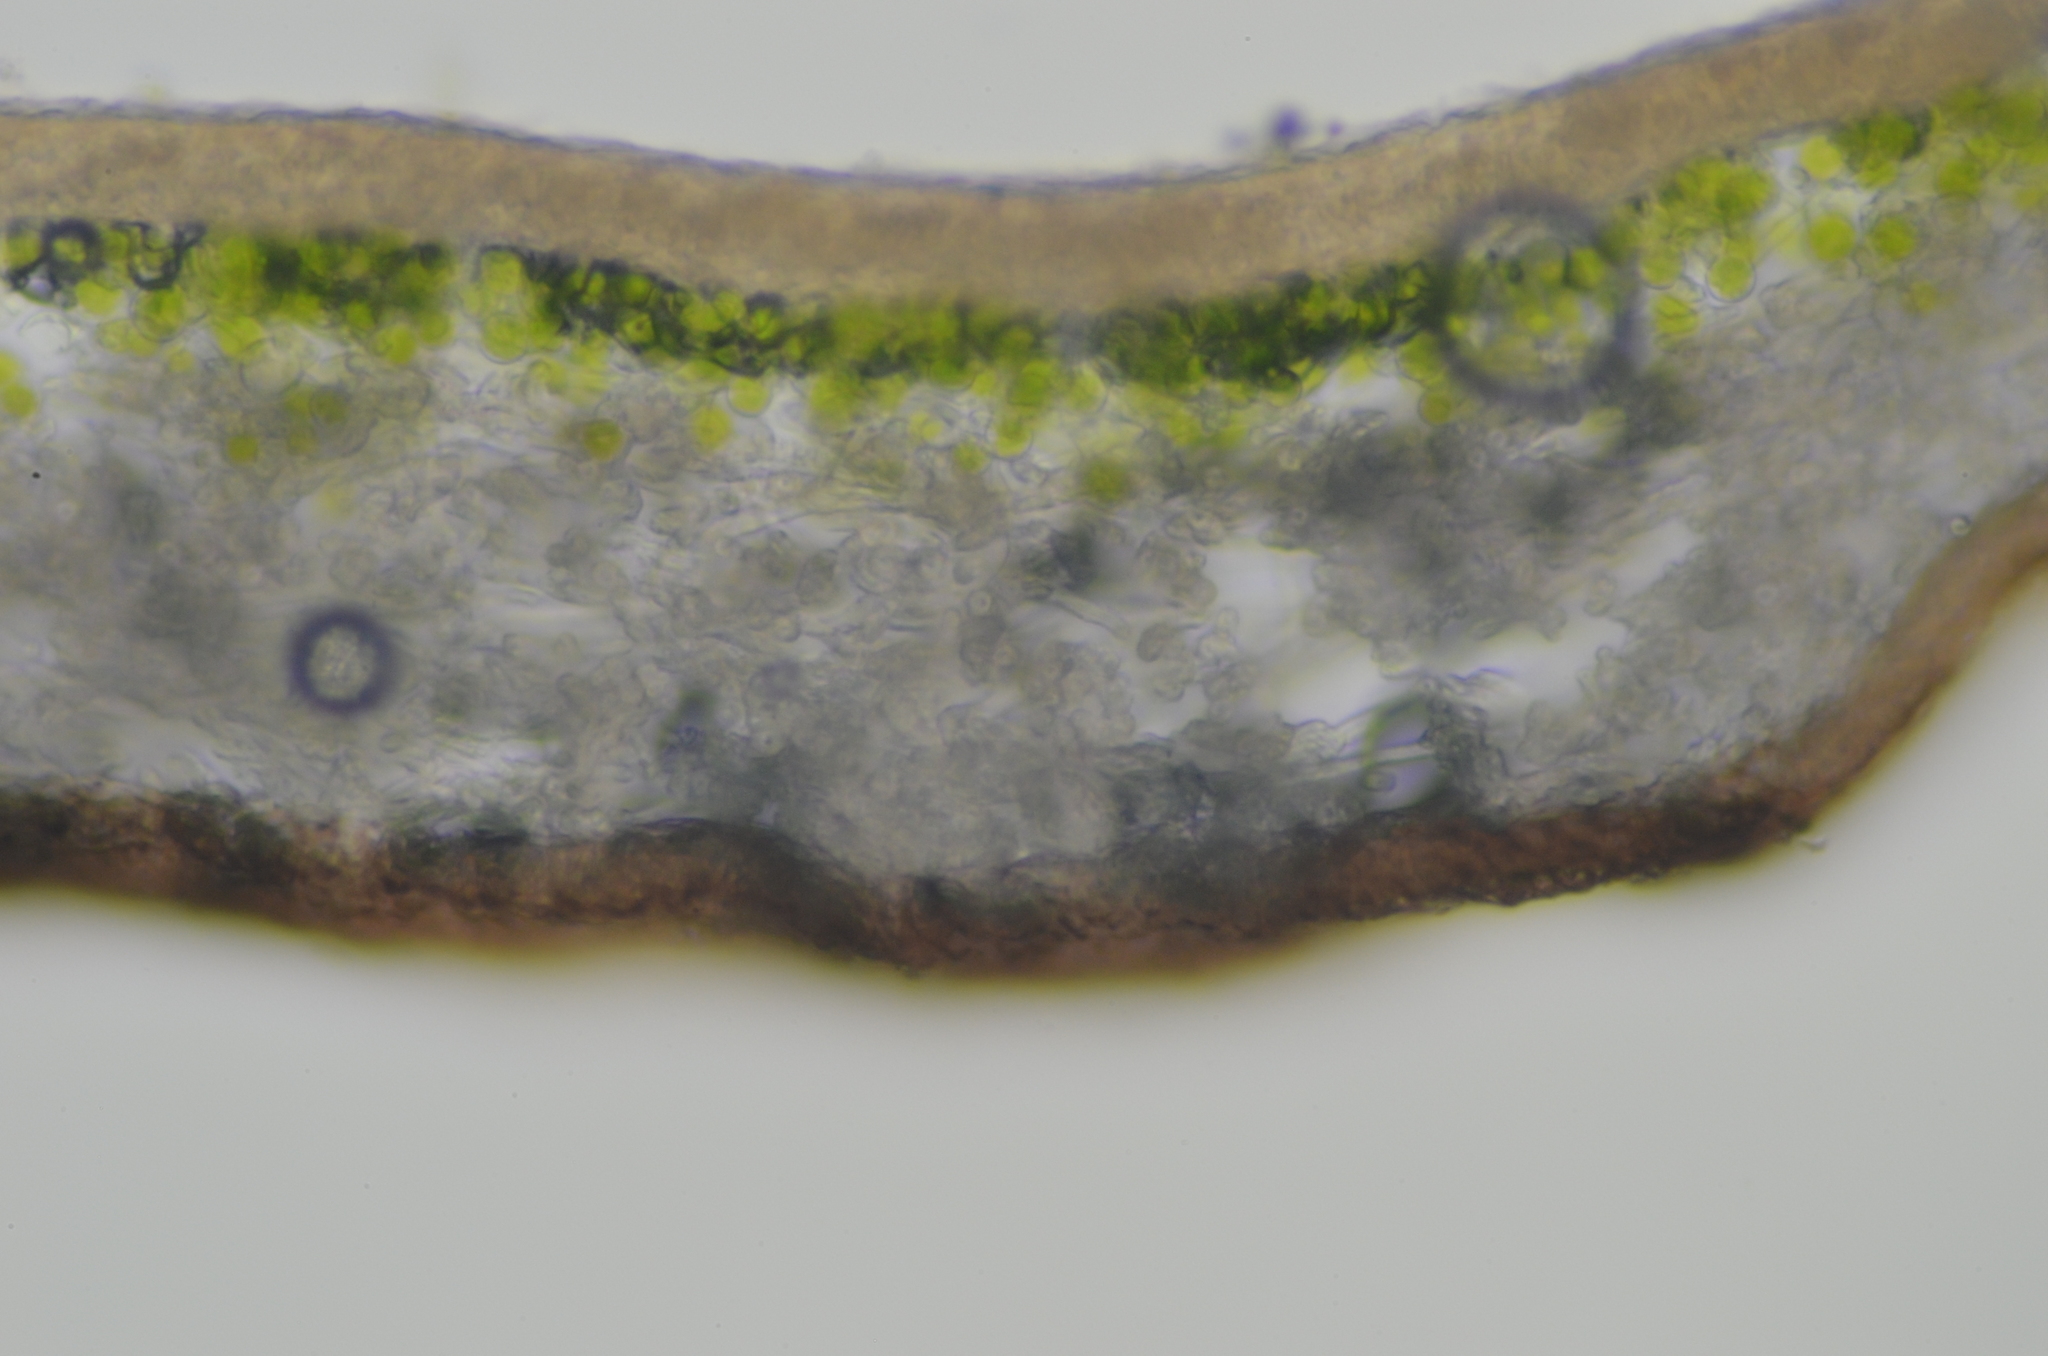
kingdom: Fungi
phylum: Ascomycota
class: Lecanoromycetes
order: Lecanorales
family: Parmeliaceae
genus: Platismatia
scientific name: Platismatia glauca
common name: Varied rag lichen
